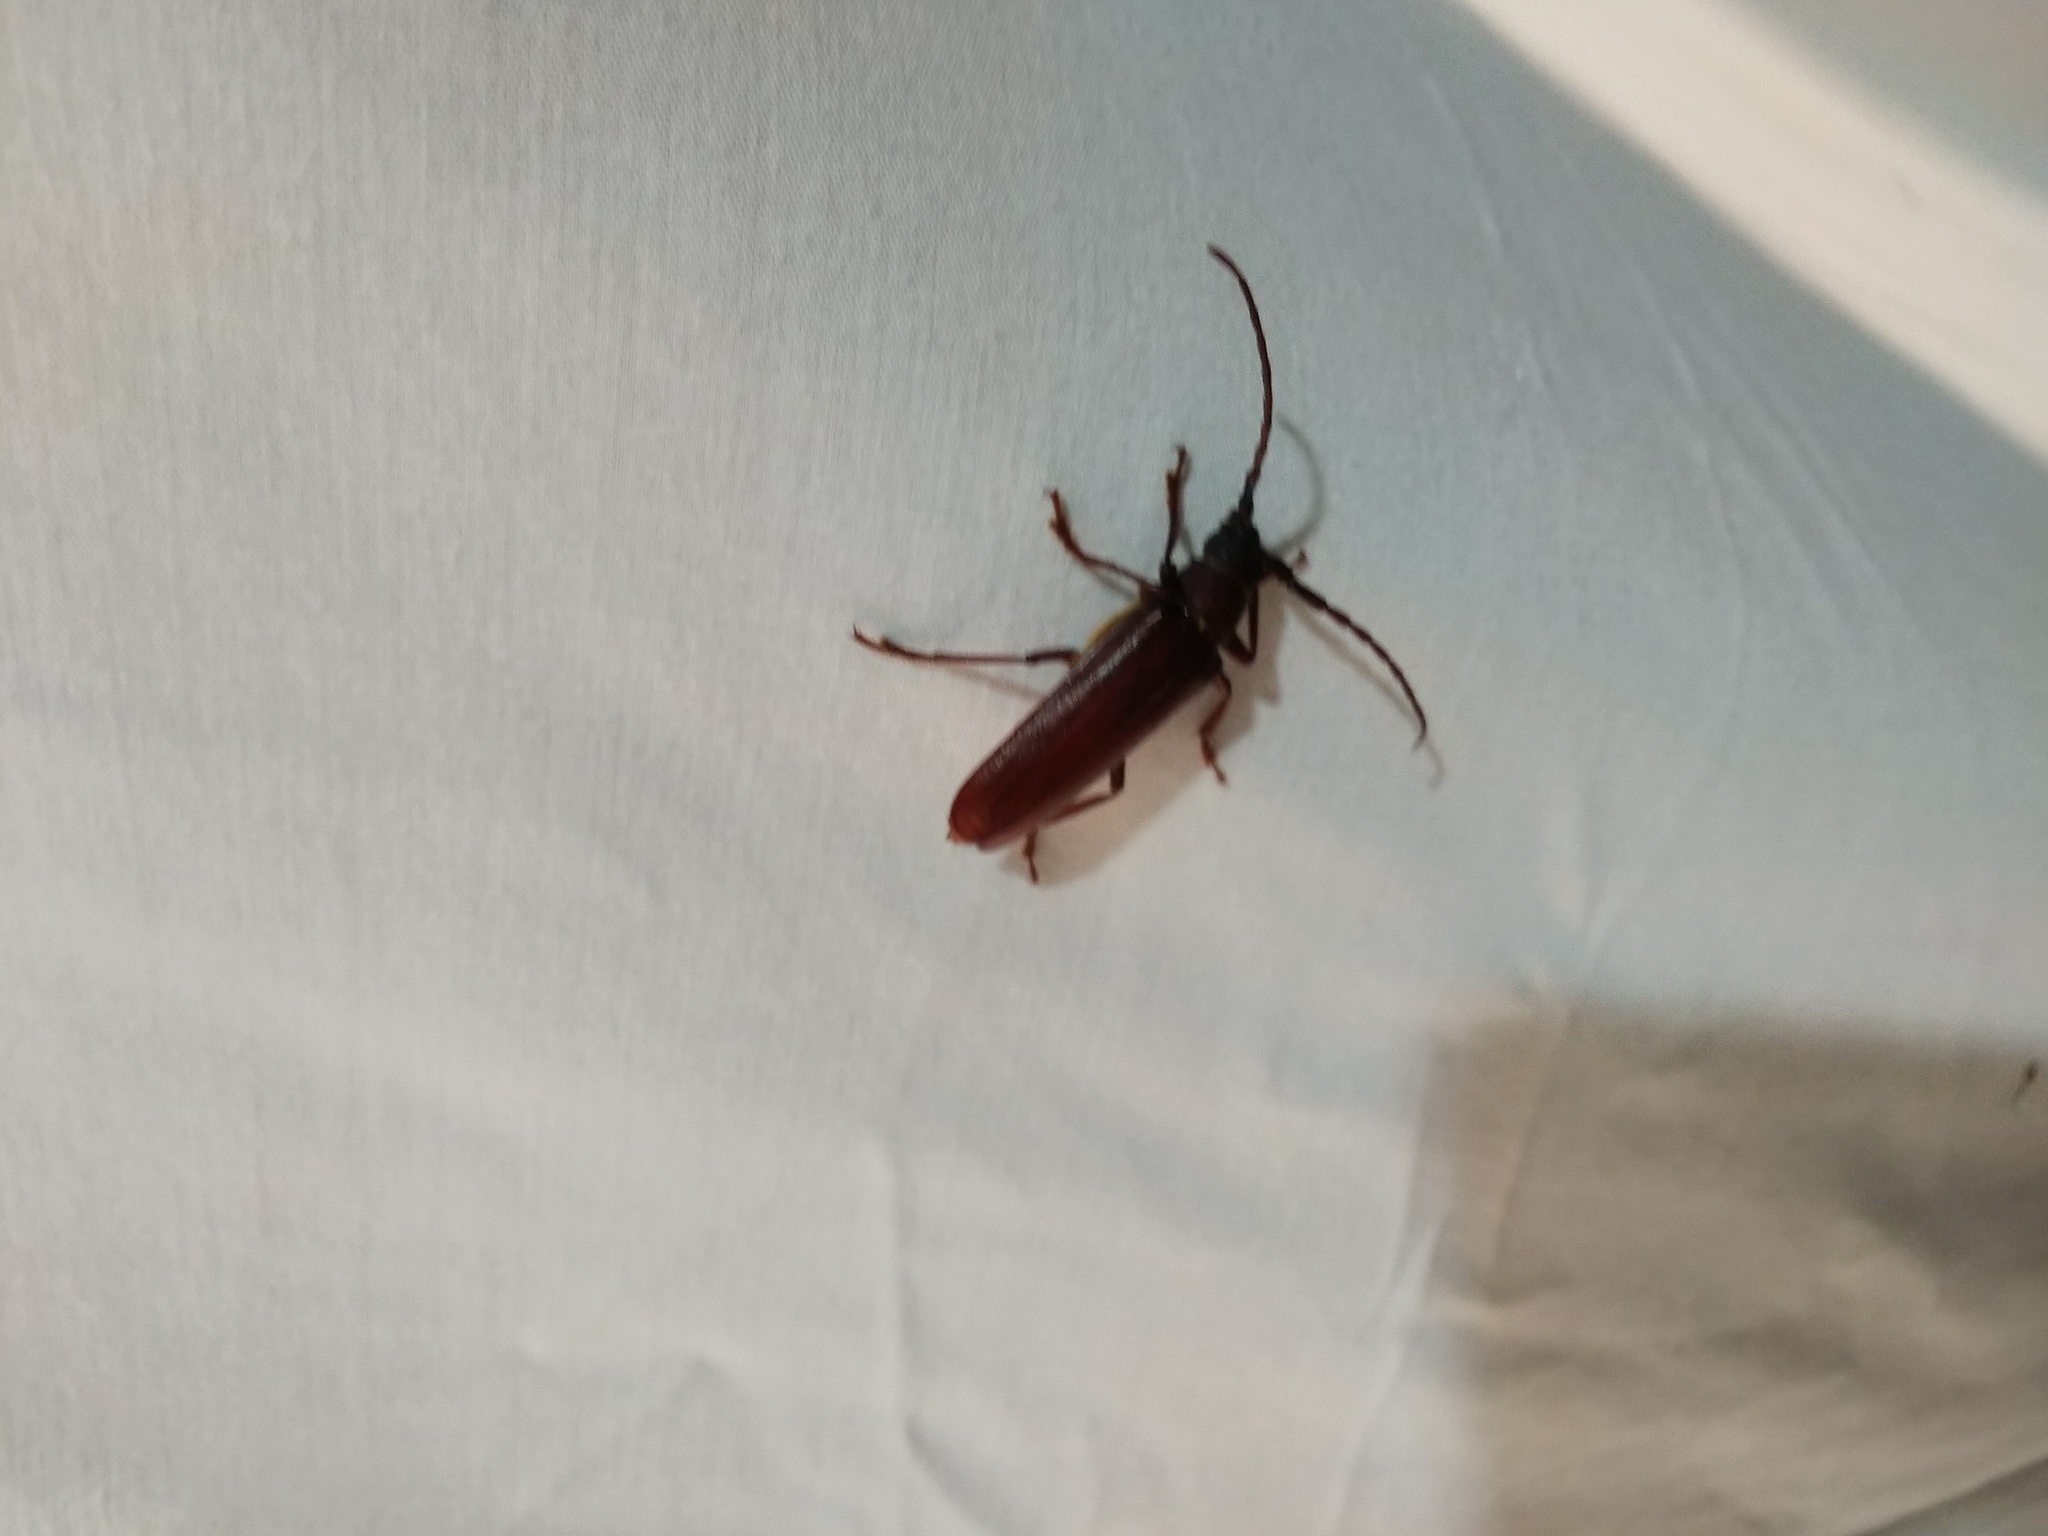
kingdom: Animalia
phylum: Arthropoda
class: Insecta
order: Coleoptera
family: Cerambycidae
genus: Orthosoma
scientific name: Orthosoma brunneum
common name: Brown prionid beetle
